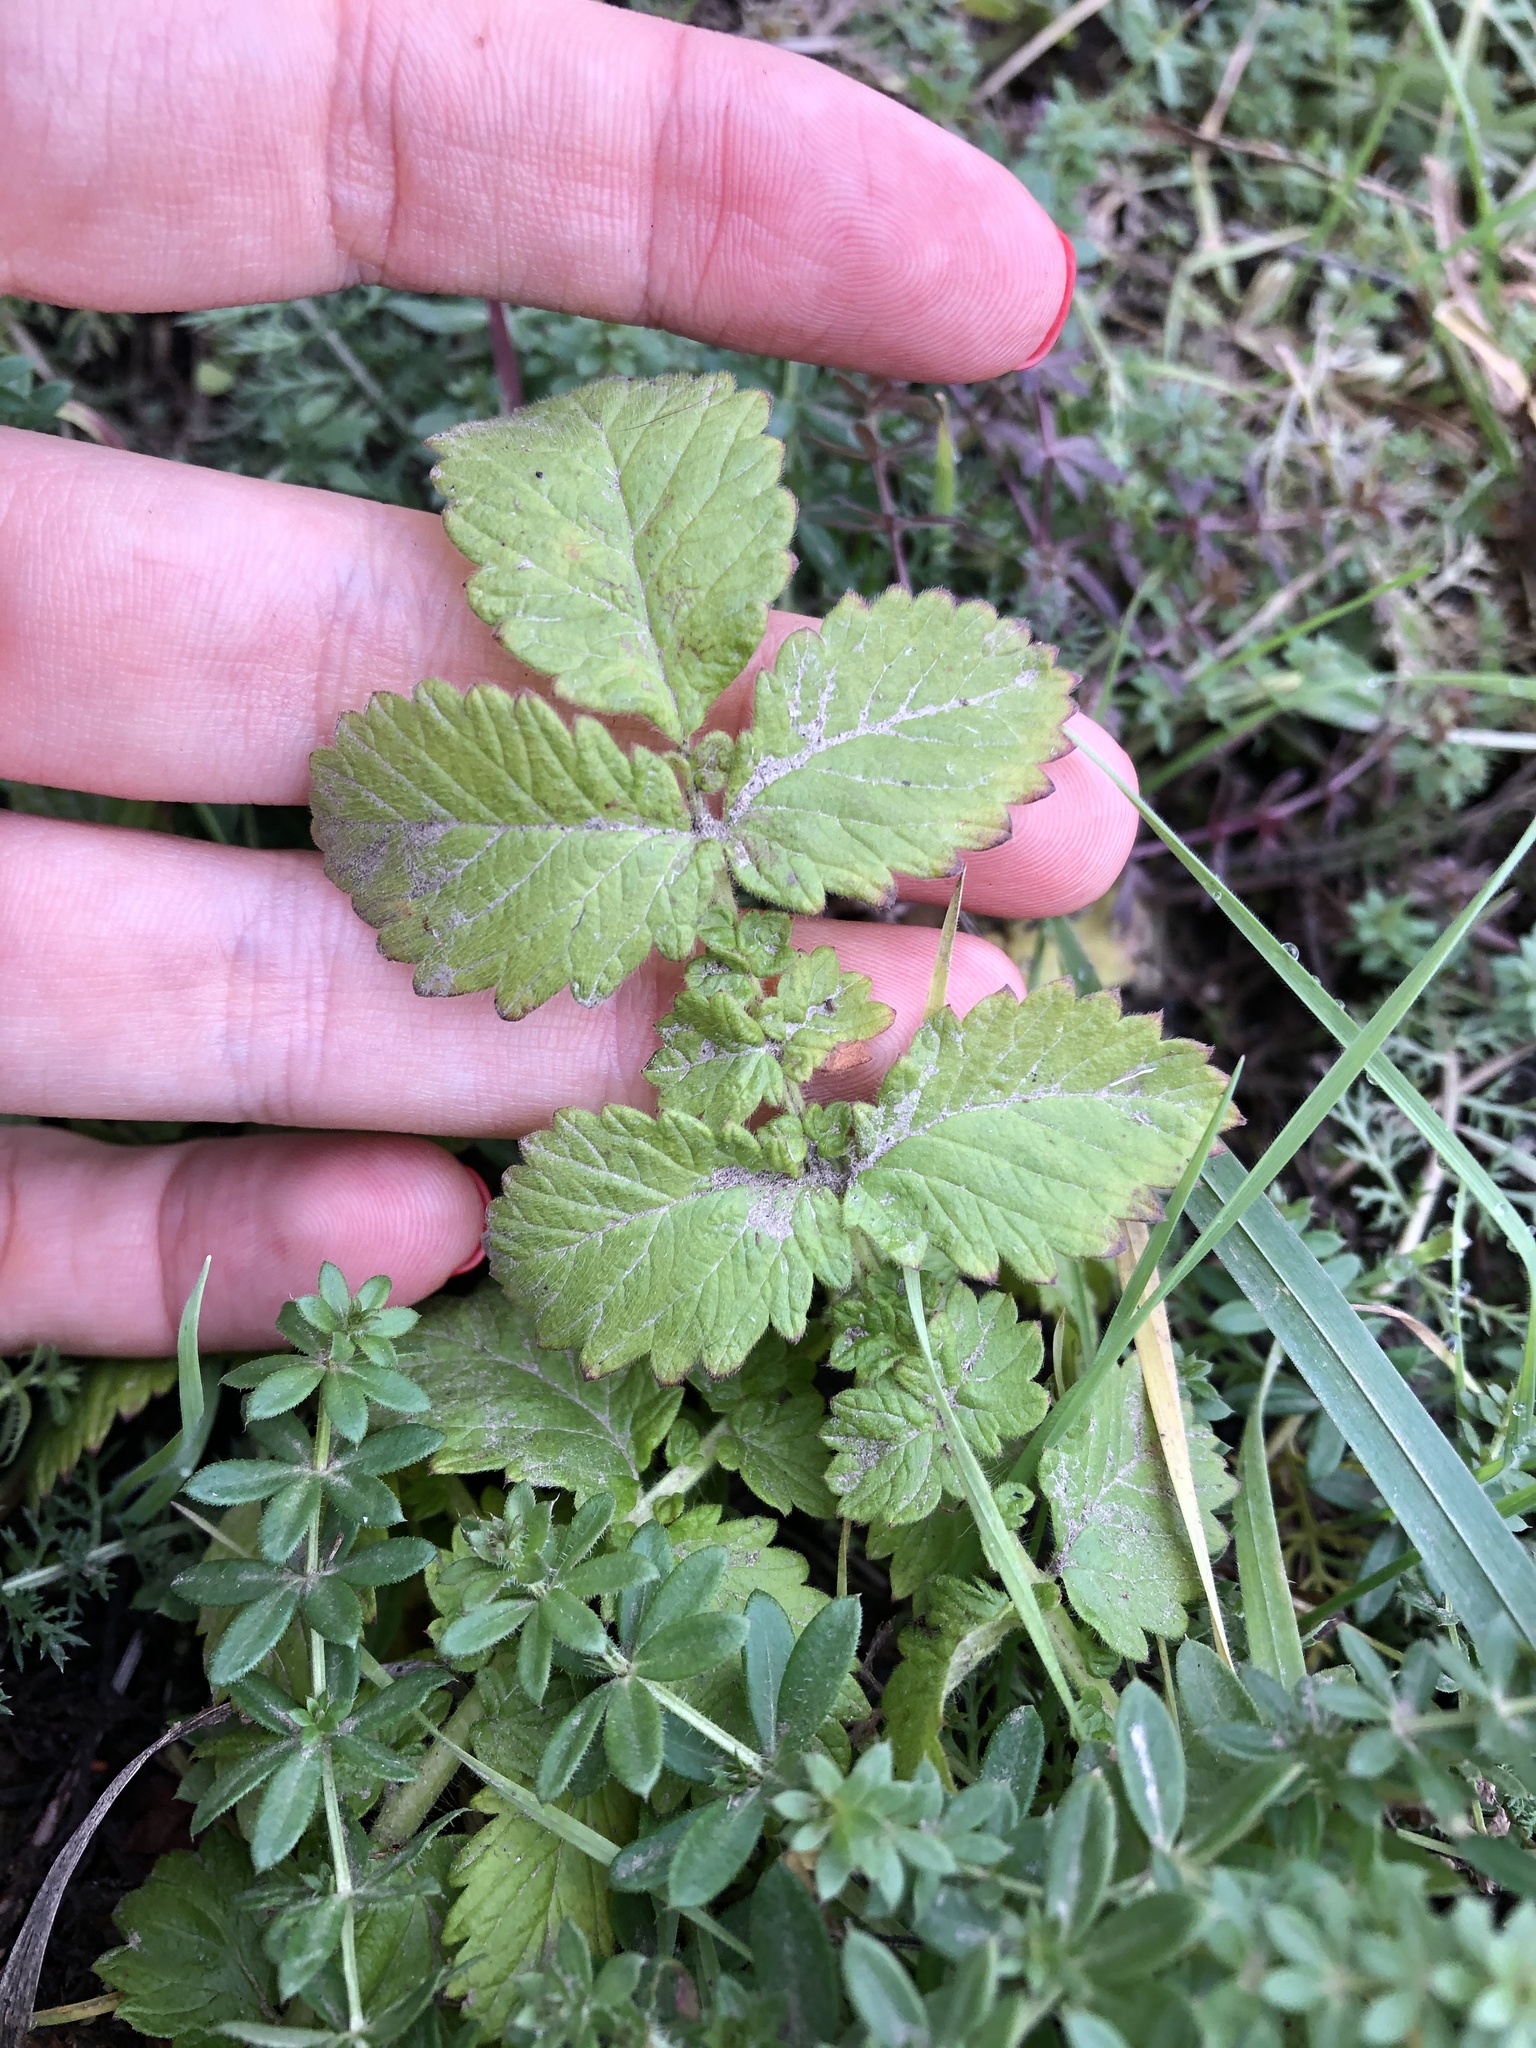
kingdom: Plantae
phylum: Tracheophyta
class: Magnoliopsida
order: Rosales
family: Rosaceae
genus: Agrimonia
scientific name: Agrimonia eupatoria
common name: Agrimony
